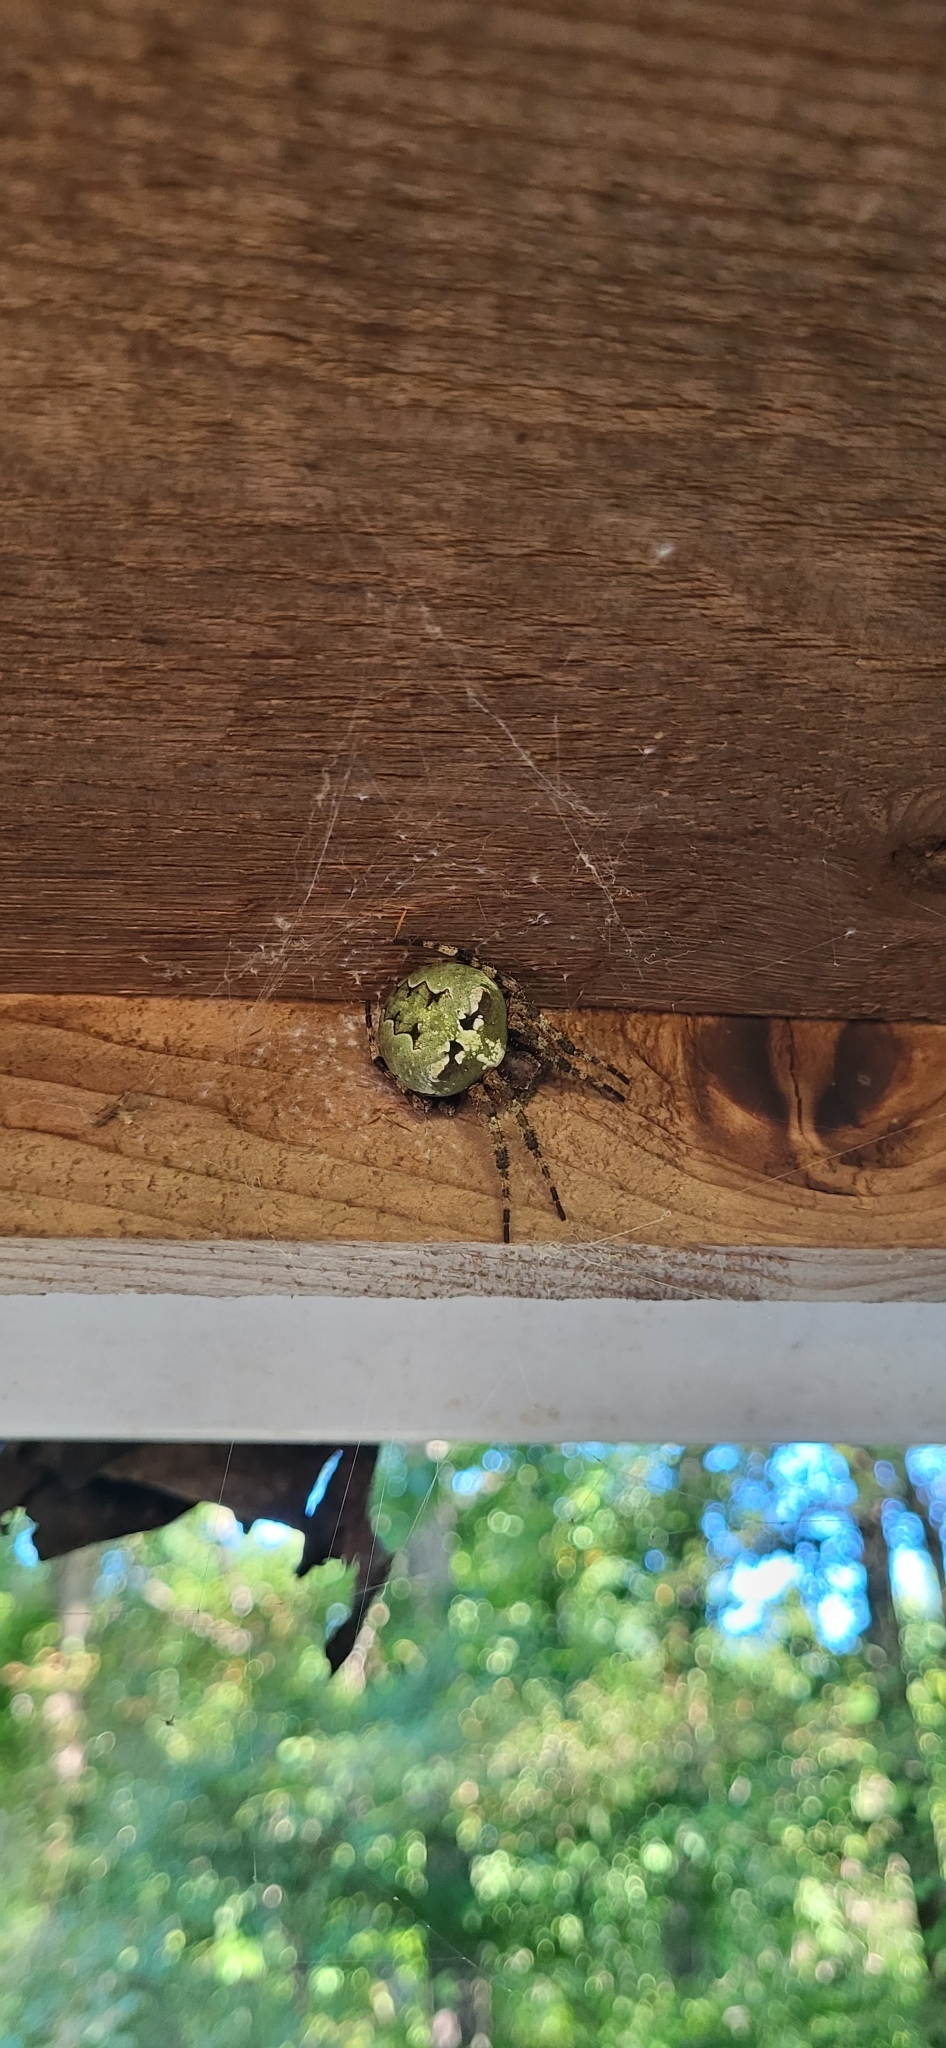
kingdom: Animalia
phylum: Arthropoda
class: Arachnida
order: Araneae
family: Araneidae
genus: Araneus
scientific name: Araneus bicentenarius
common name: Giant lichen orbweaver
